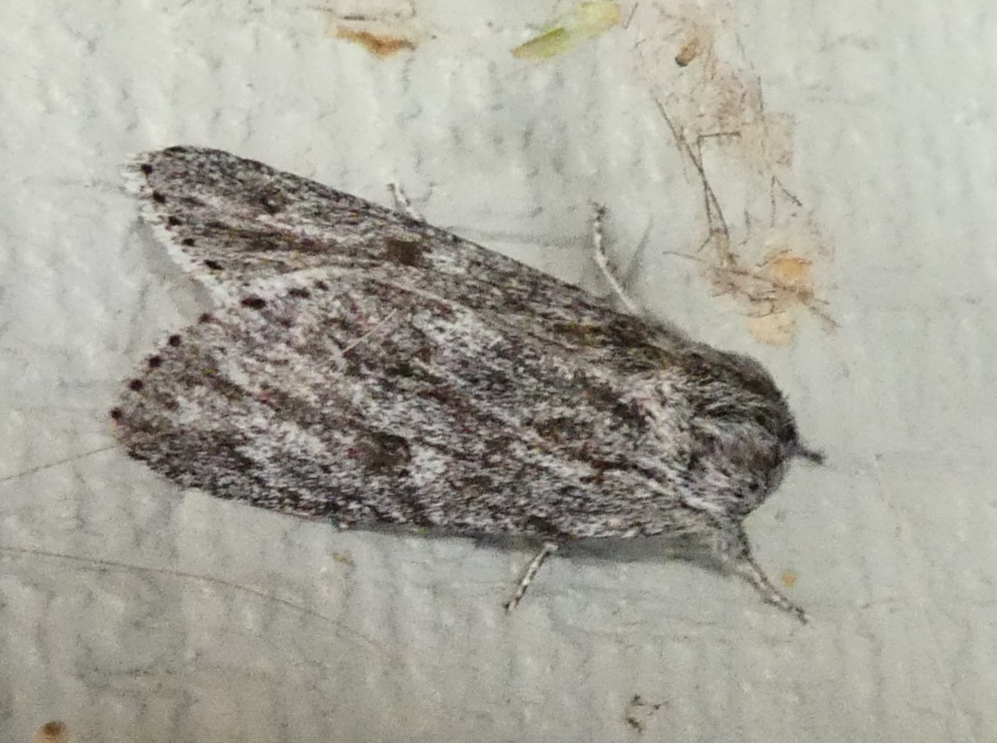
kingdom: Animalia
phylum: Arthropoda
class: Insecta
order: Lepidoptera
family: Noctuidae
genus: Acronicta
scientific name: Acronicta oblinita
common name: Smeared dagger
